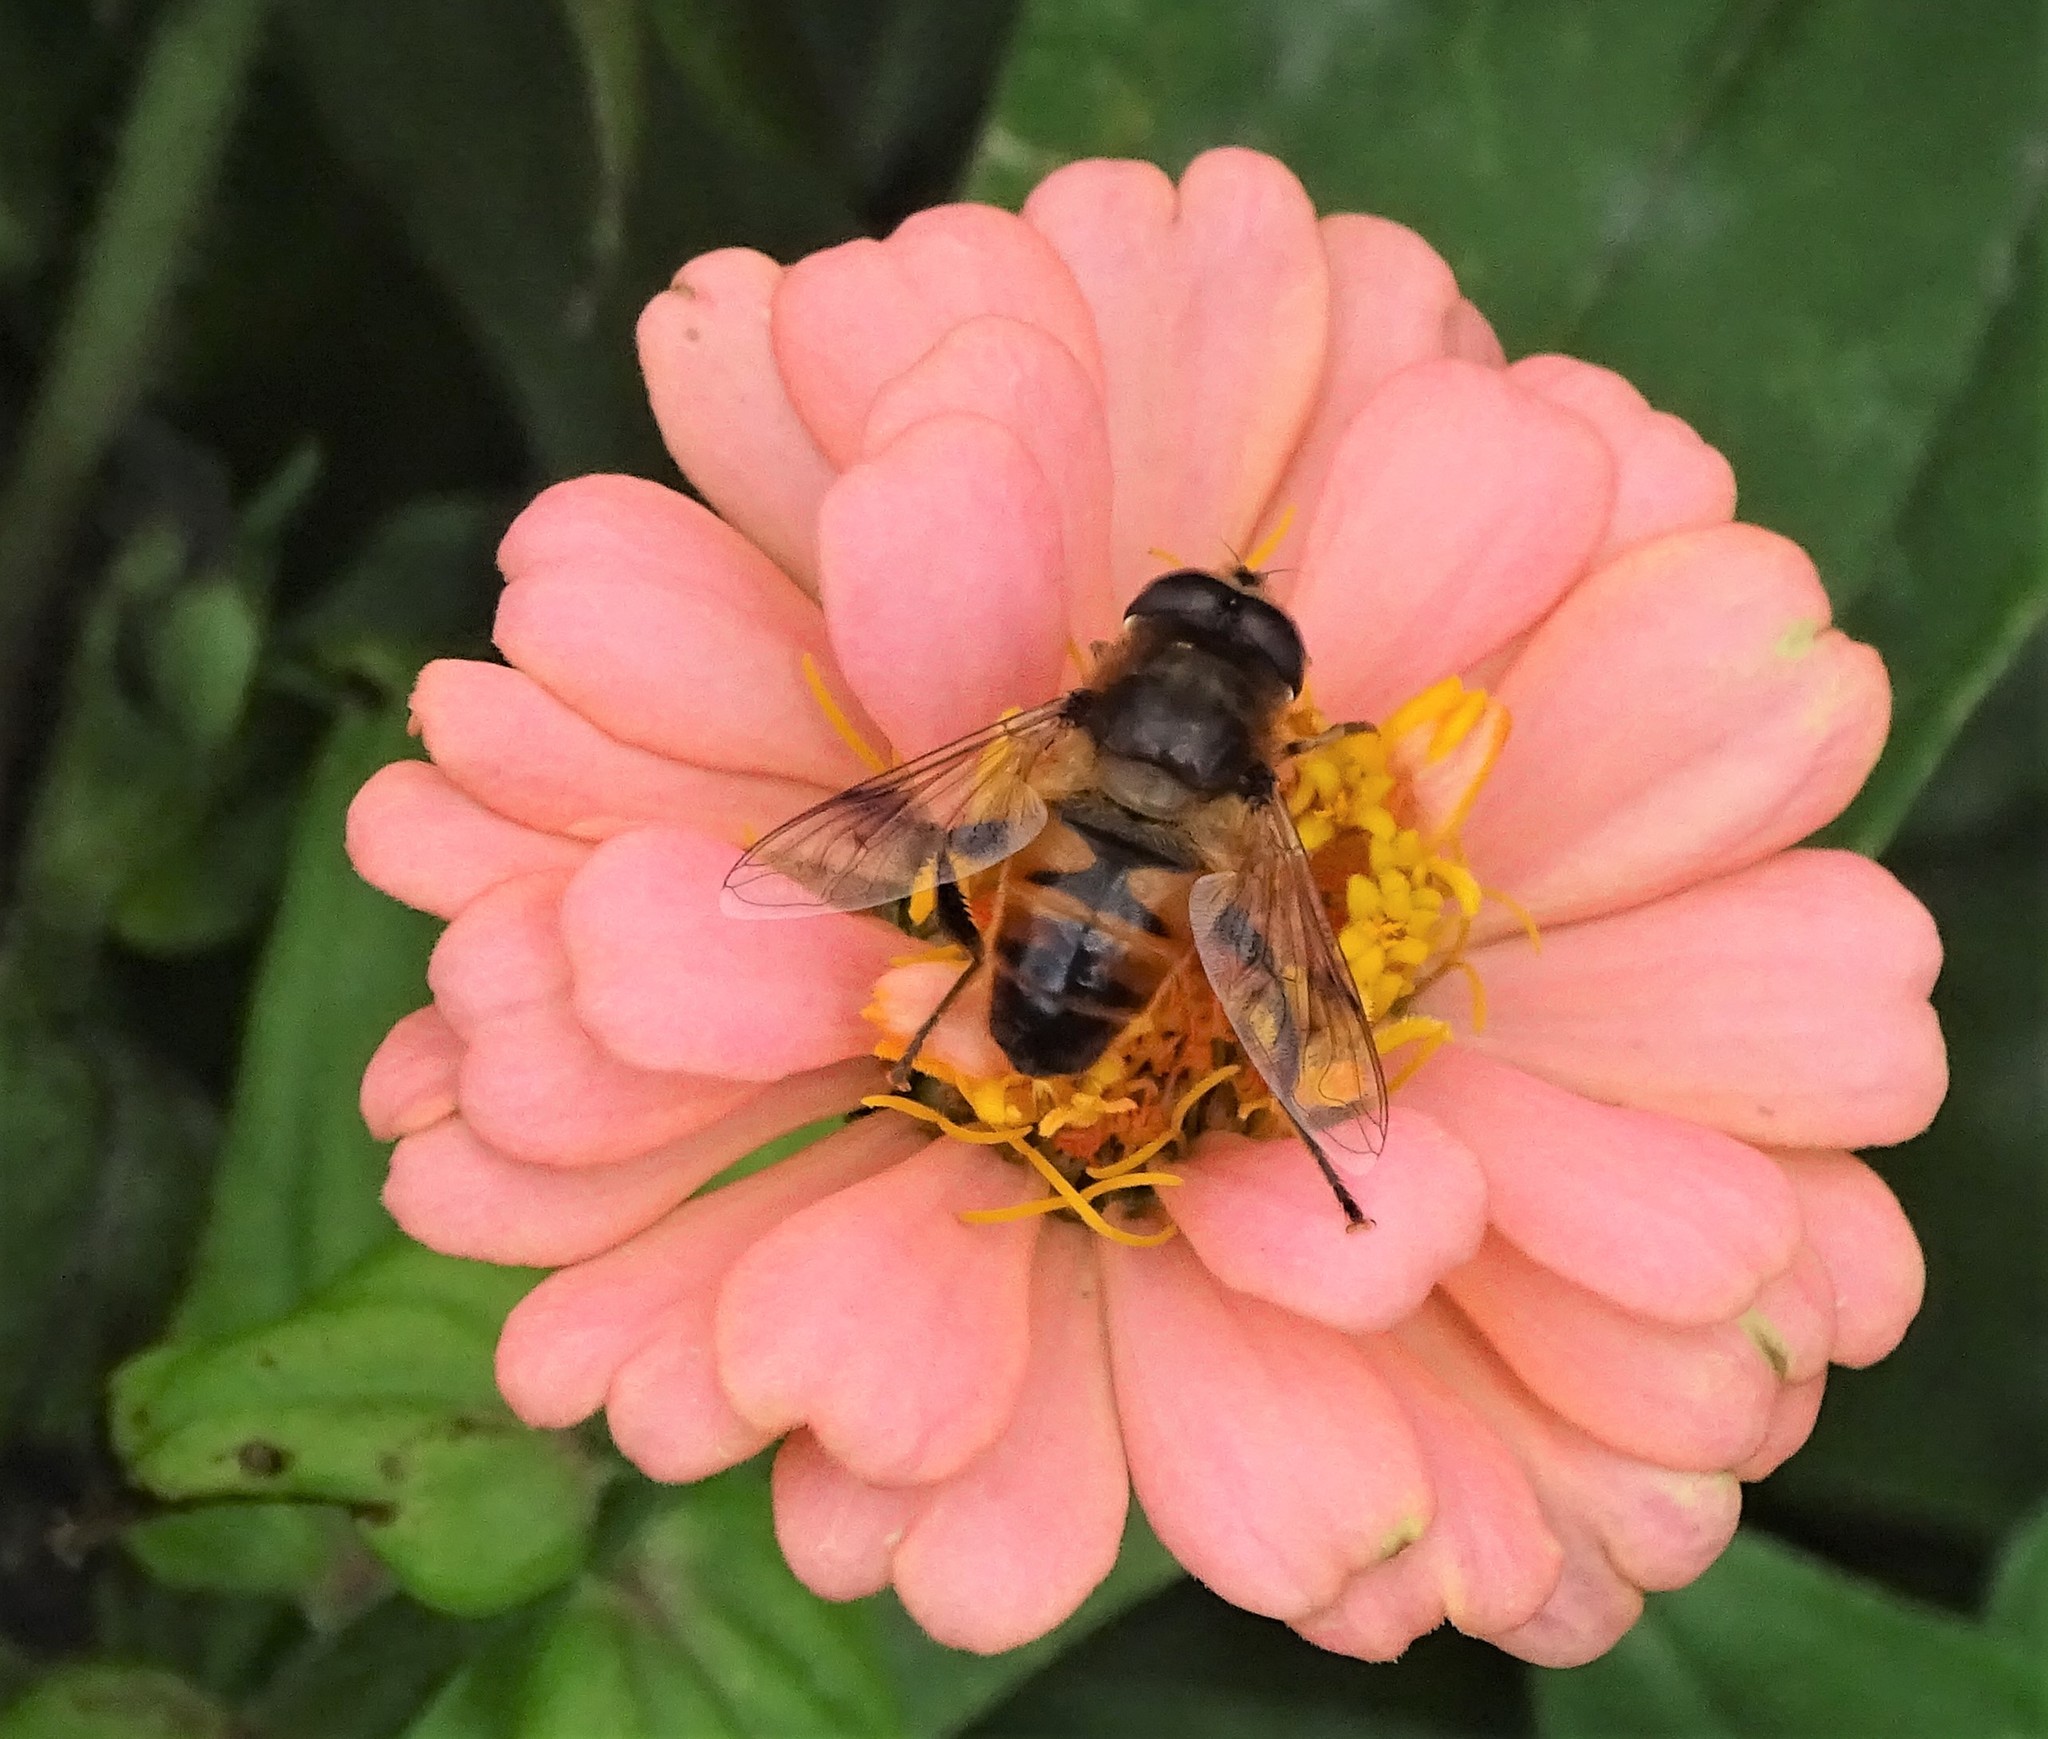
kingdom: Animalia
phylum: Arthropoda
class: Insecta
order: Diptera
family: Syrphidae
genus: Eristalis
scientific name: Eristalis tenax
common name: Drone fly
